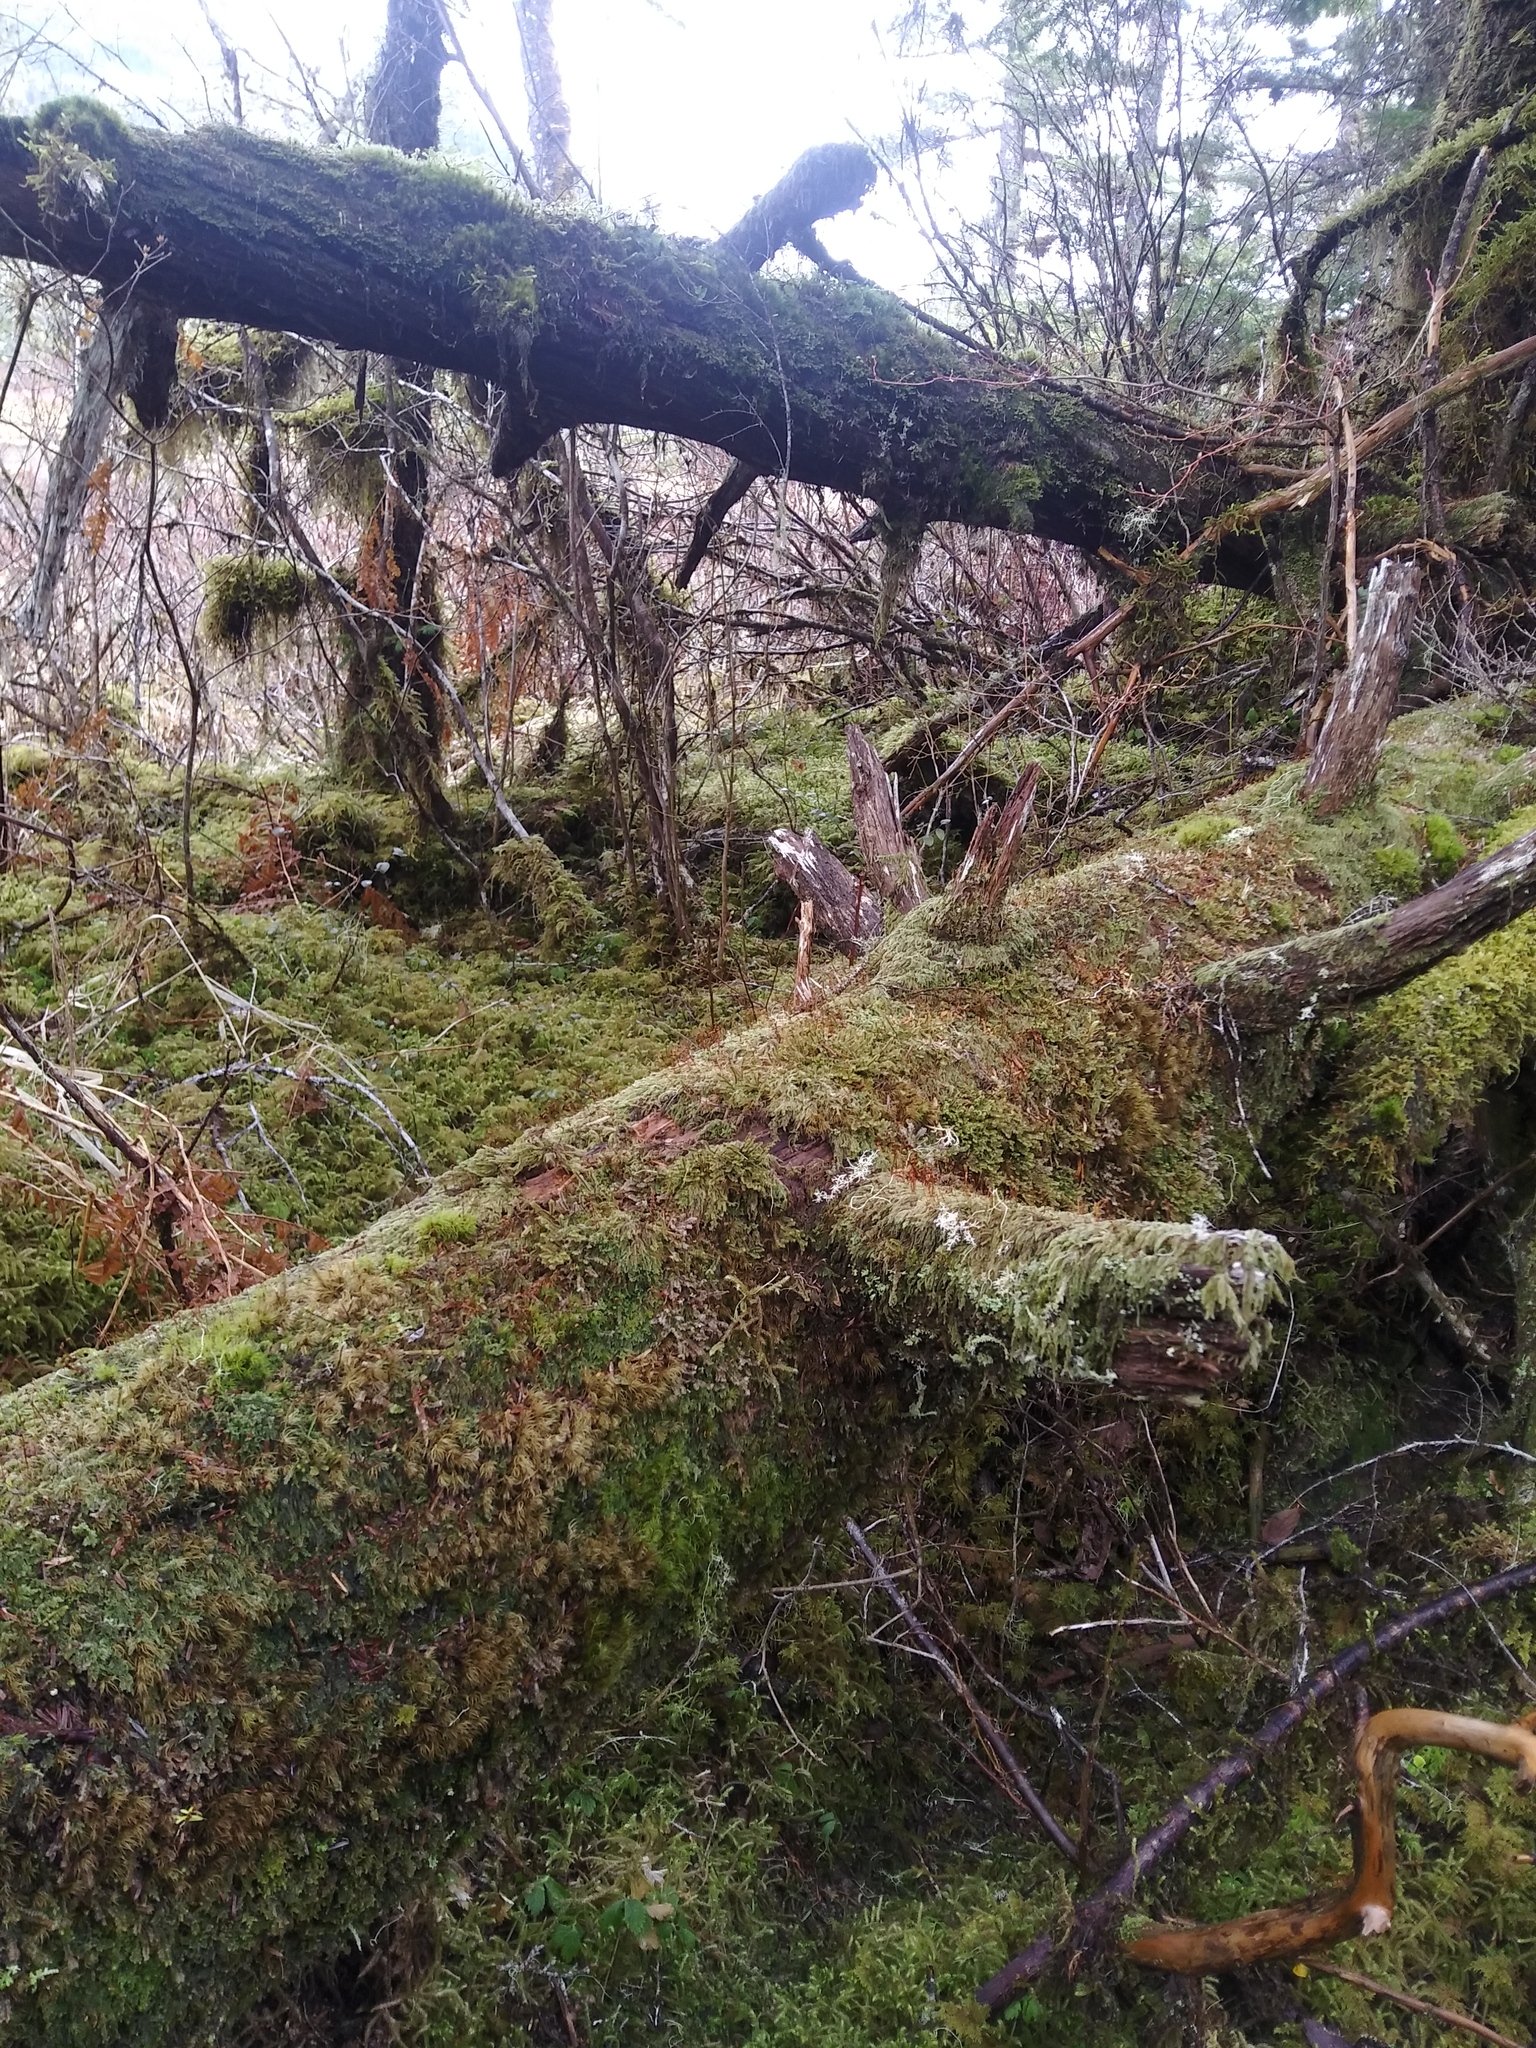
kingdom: Plantae
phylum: Bryophyta
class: Bryopsida
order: Hypnales
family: Pylaisiadelphaceae
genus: Trochophyllohypnum
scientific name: Trochophyllohypnum circinale
